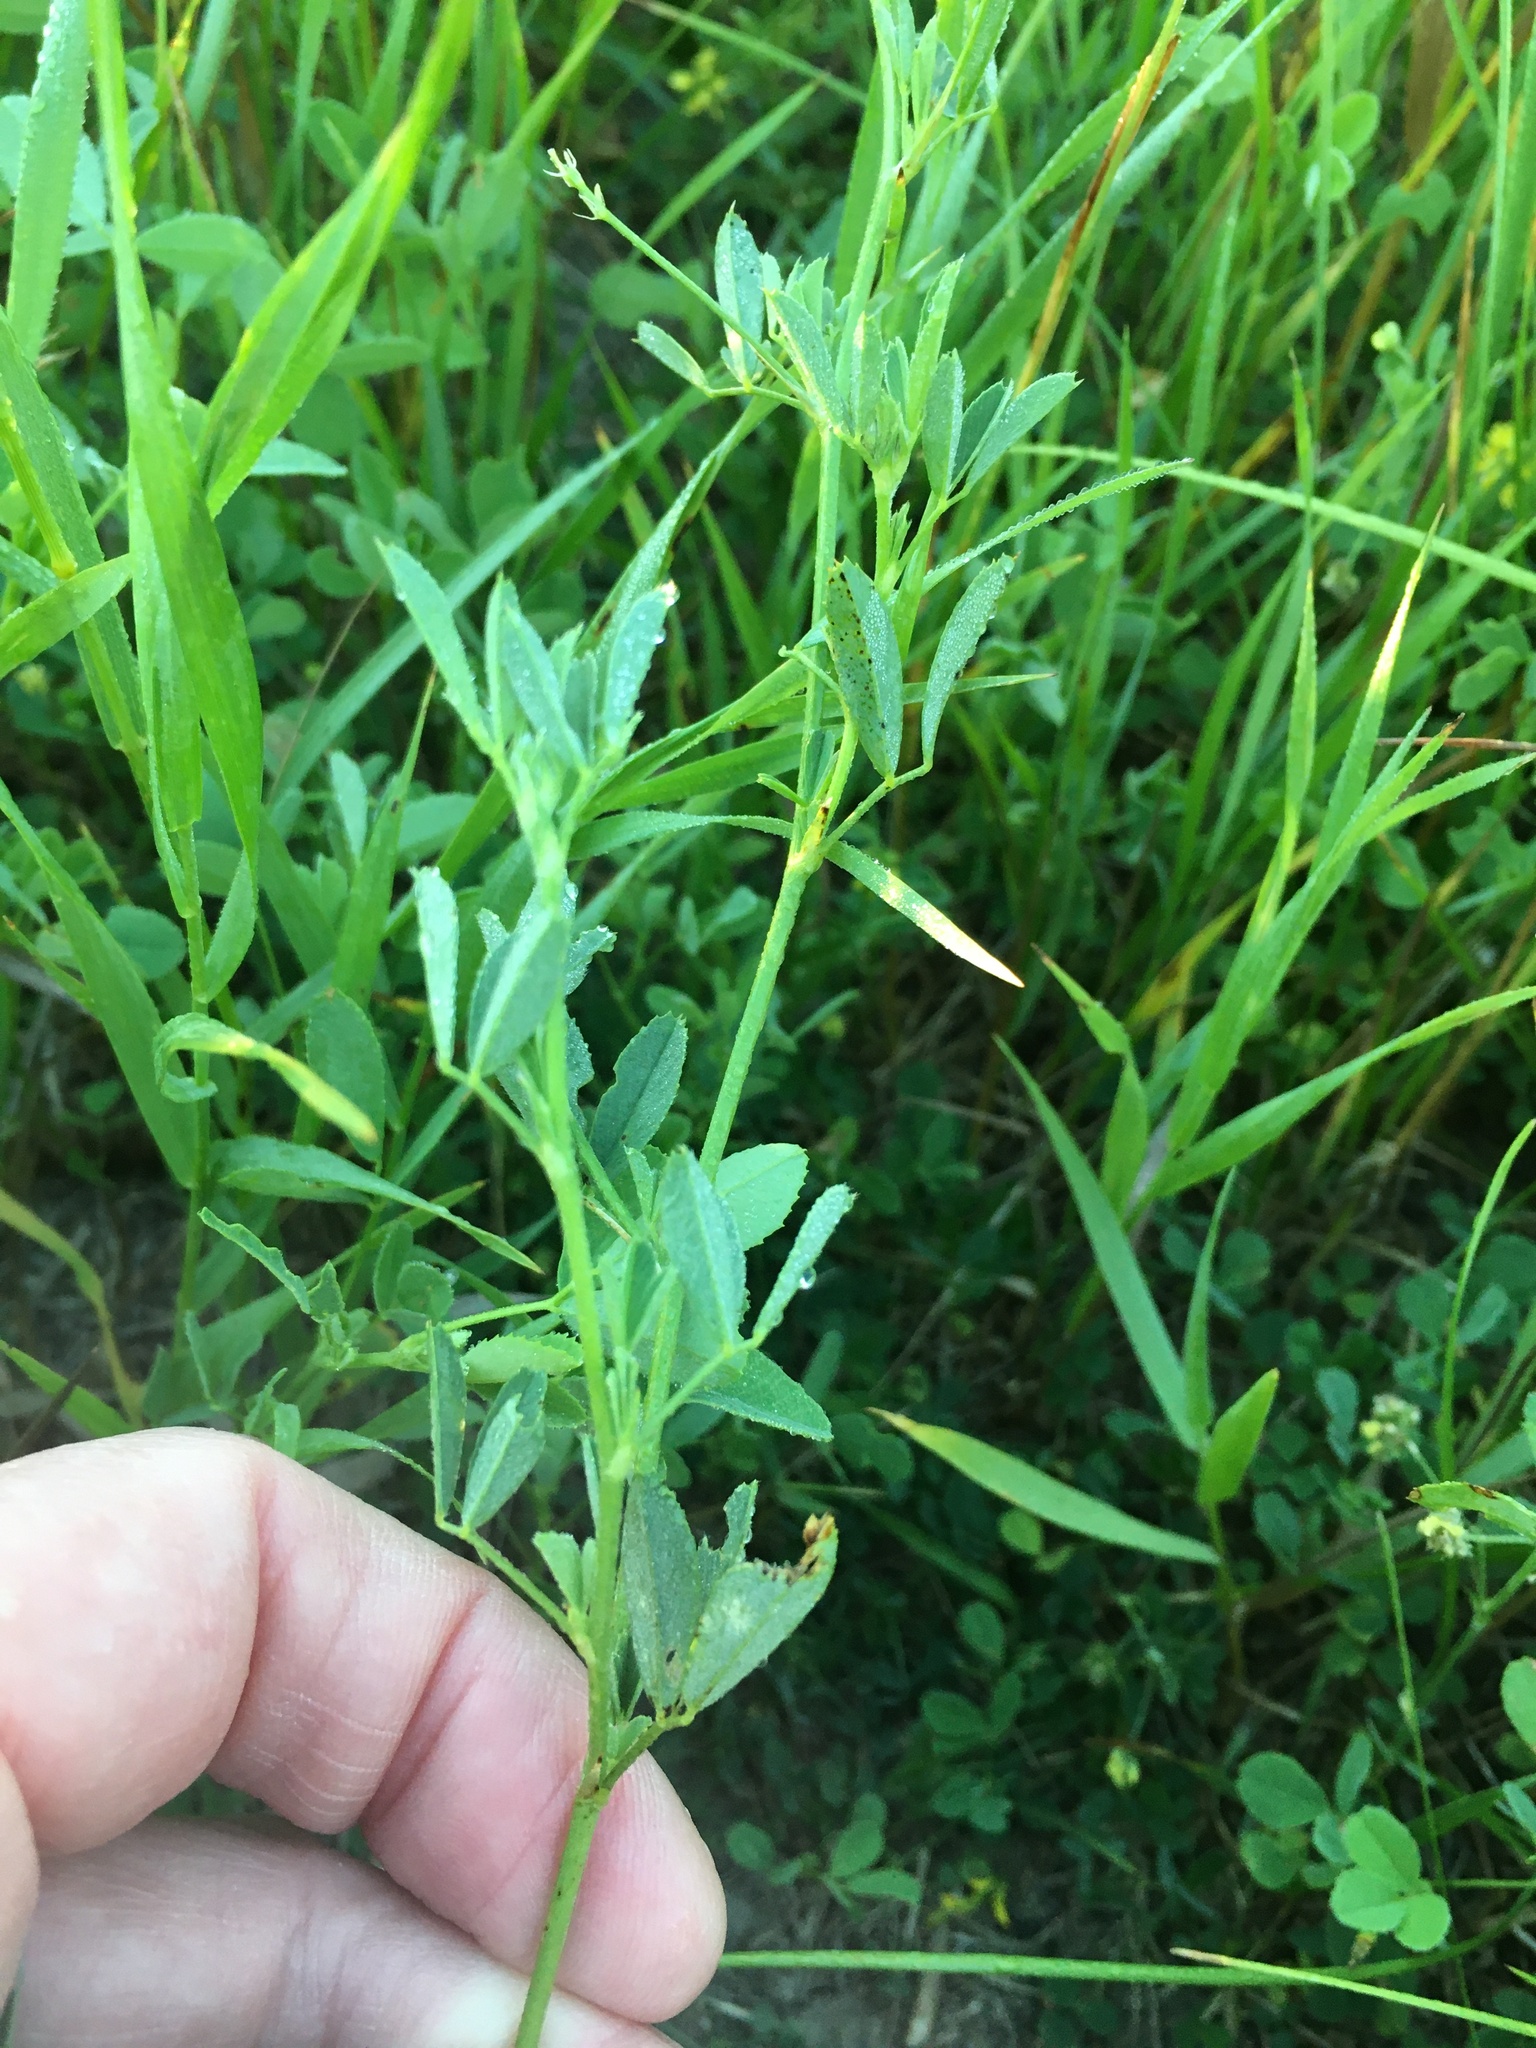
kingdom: Plantae
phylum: Tracheophyta
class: Magnoliopsida
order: Fabales
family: Fabaceae
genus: Medicago
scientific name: Medicago sativa
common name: Alfalfa
